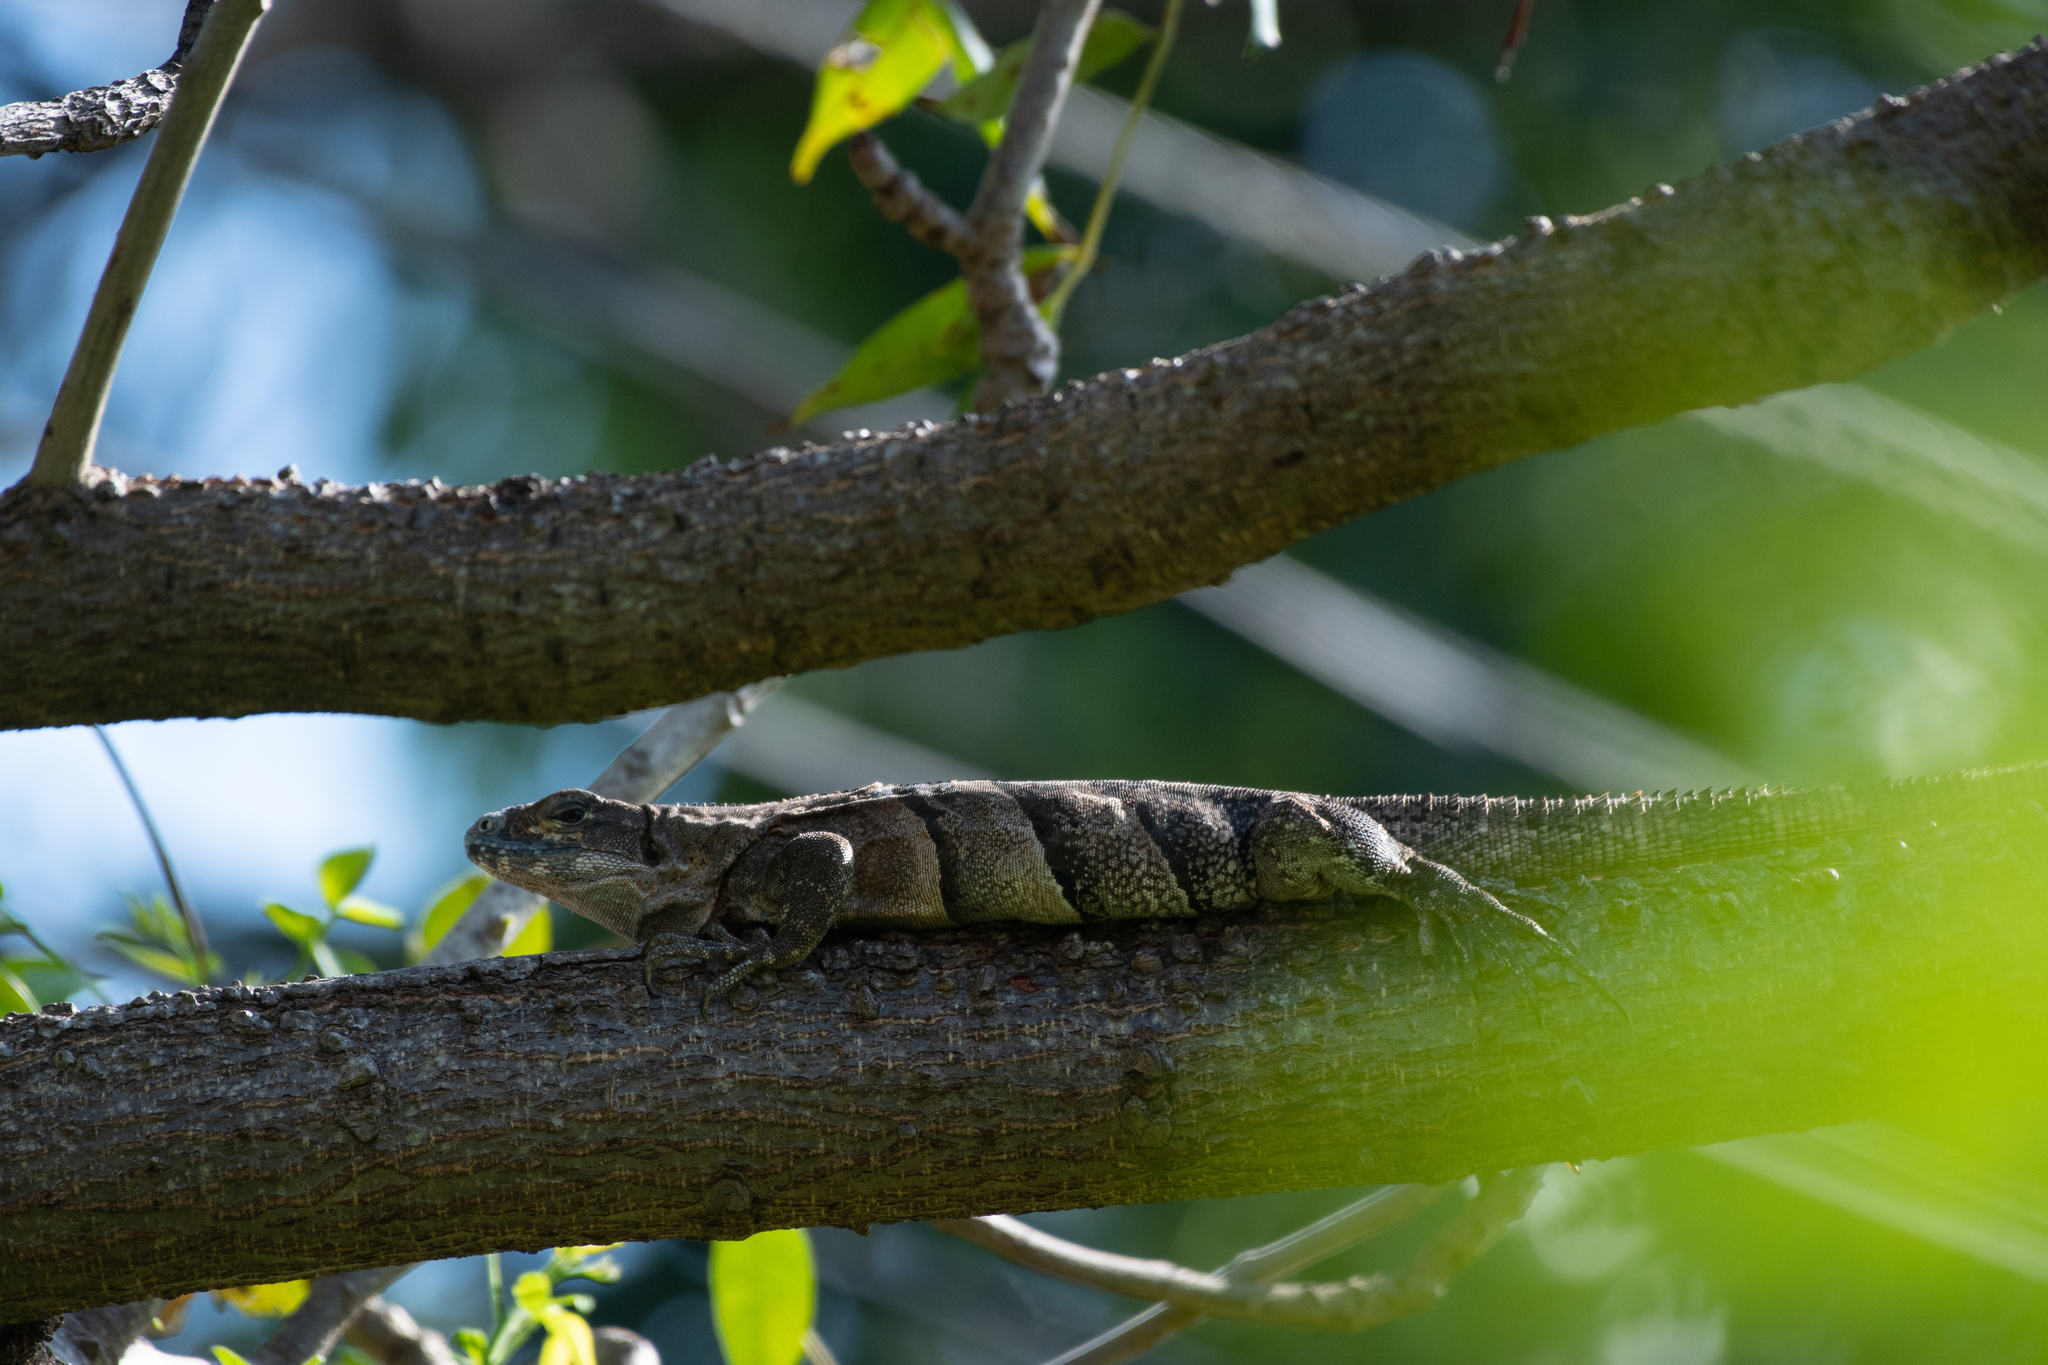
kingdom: Animalia
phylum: Chordata
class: Squamata
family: Iguanidae
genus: Ctenosaura
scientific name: Ctenosaura similis
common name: Black spiny-tailed iguana
